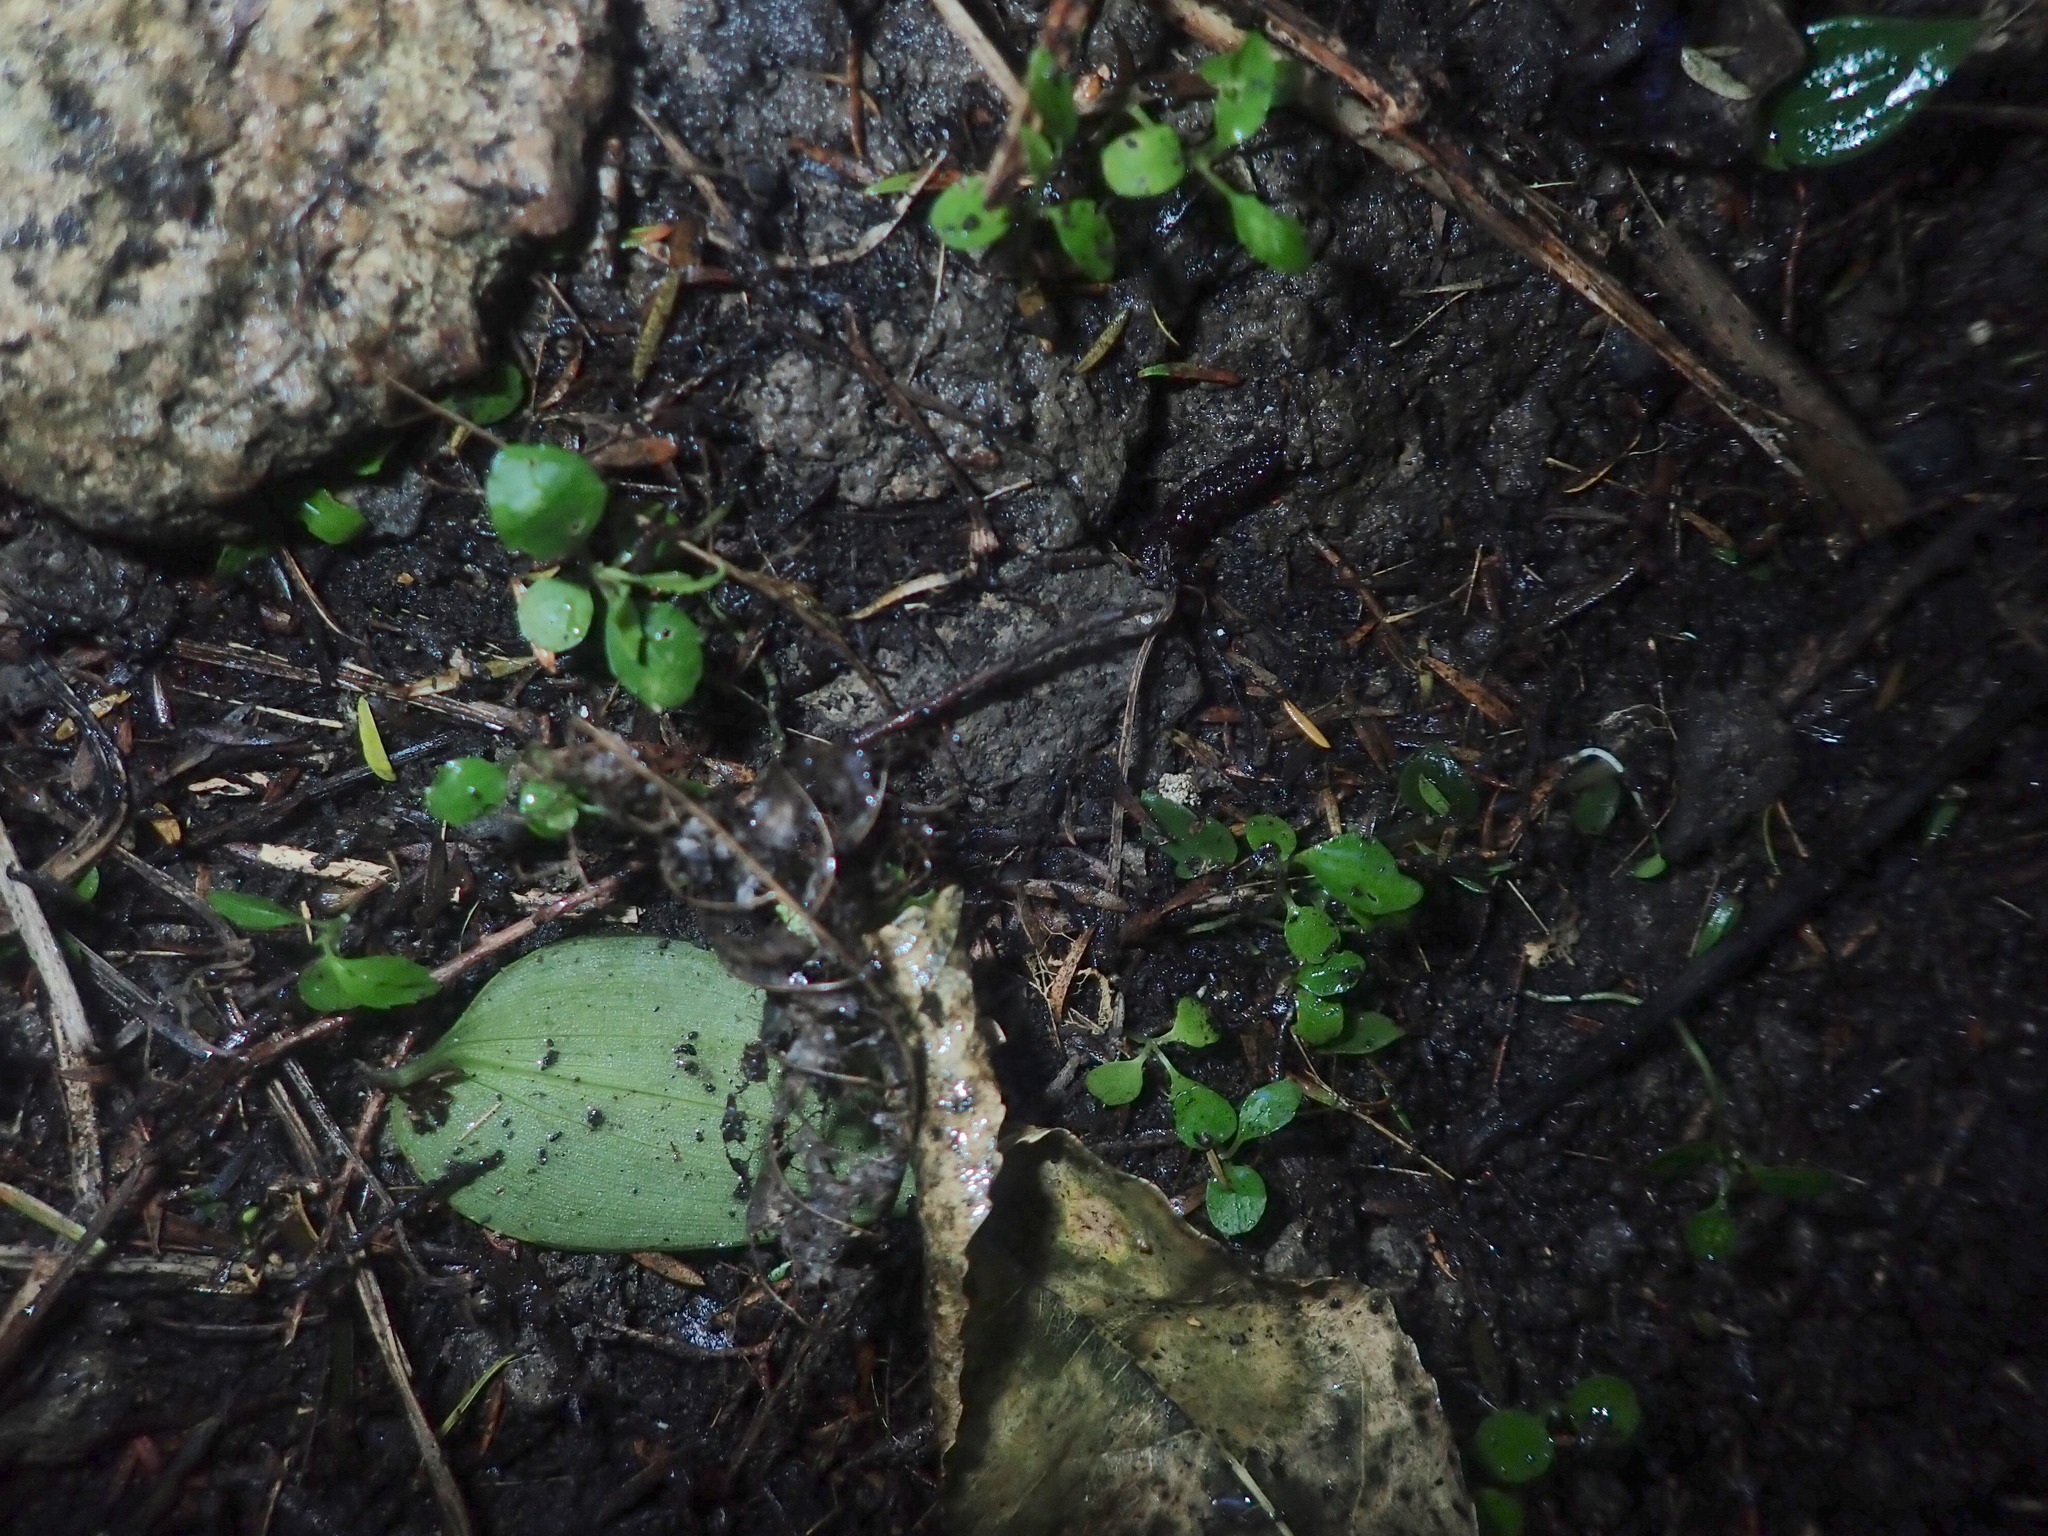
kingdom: Plantae
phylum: Tracheophyta
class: Magnoliopsida
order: Malpighiales
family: Violaceae
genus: Melicytus
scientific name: Melicytus ramiflorus
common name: Mahoe
